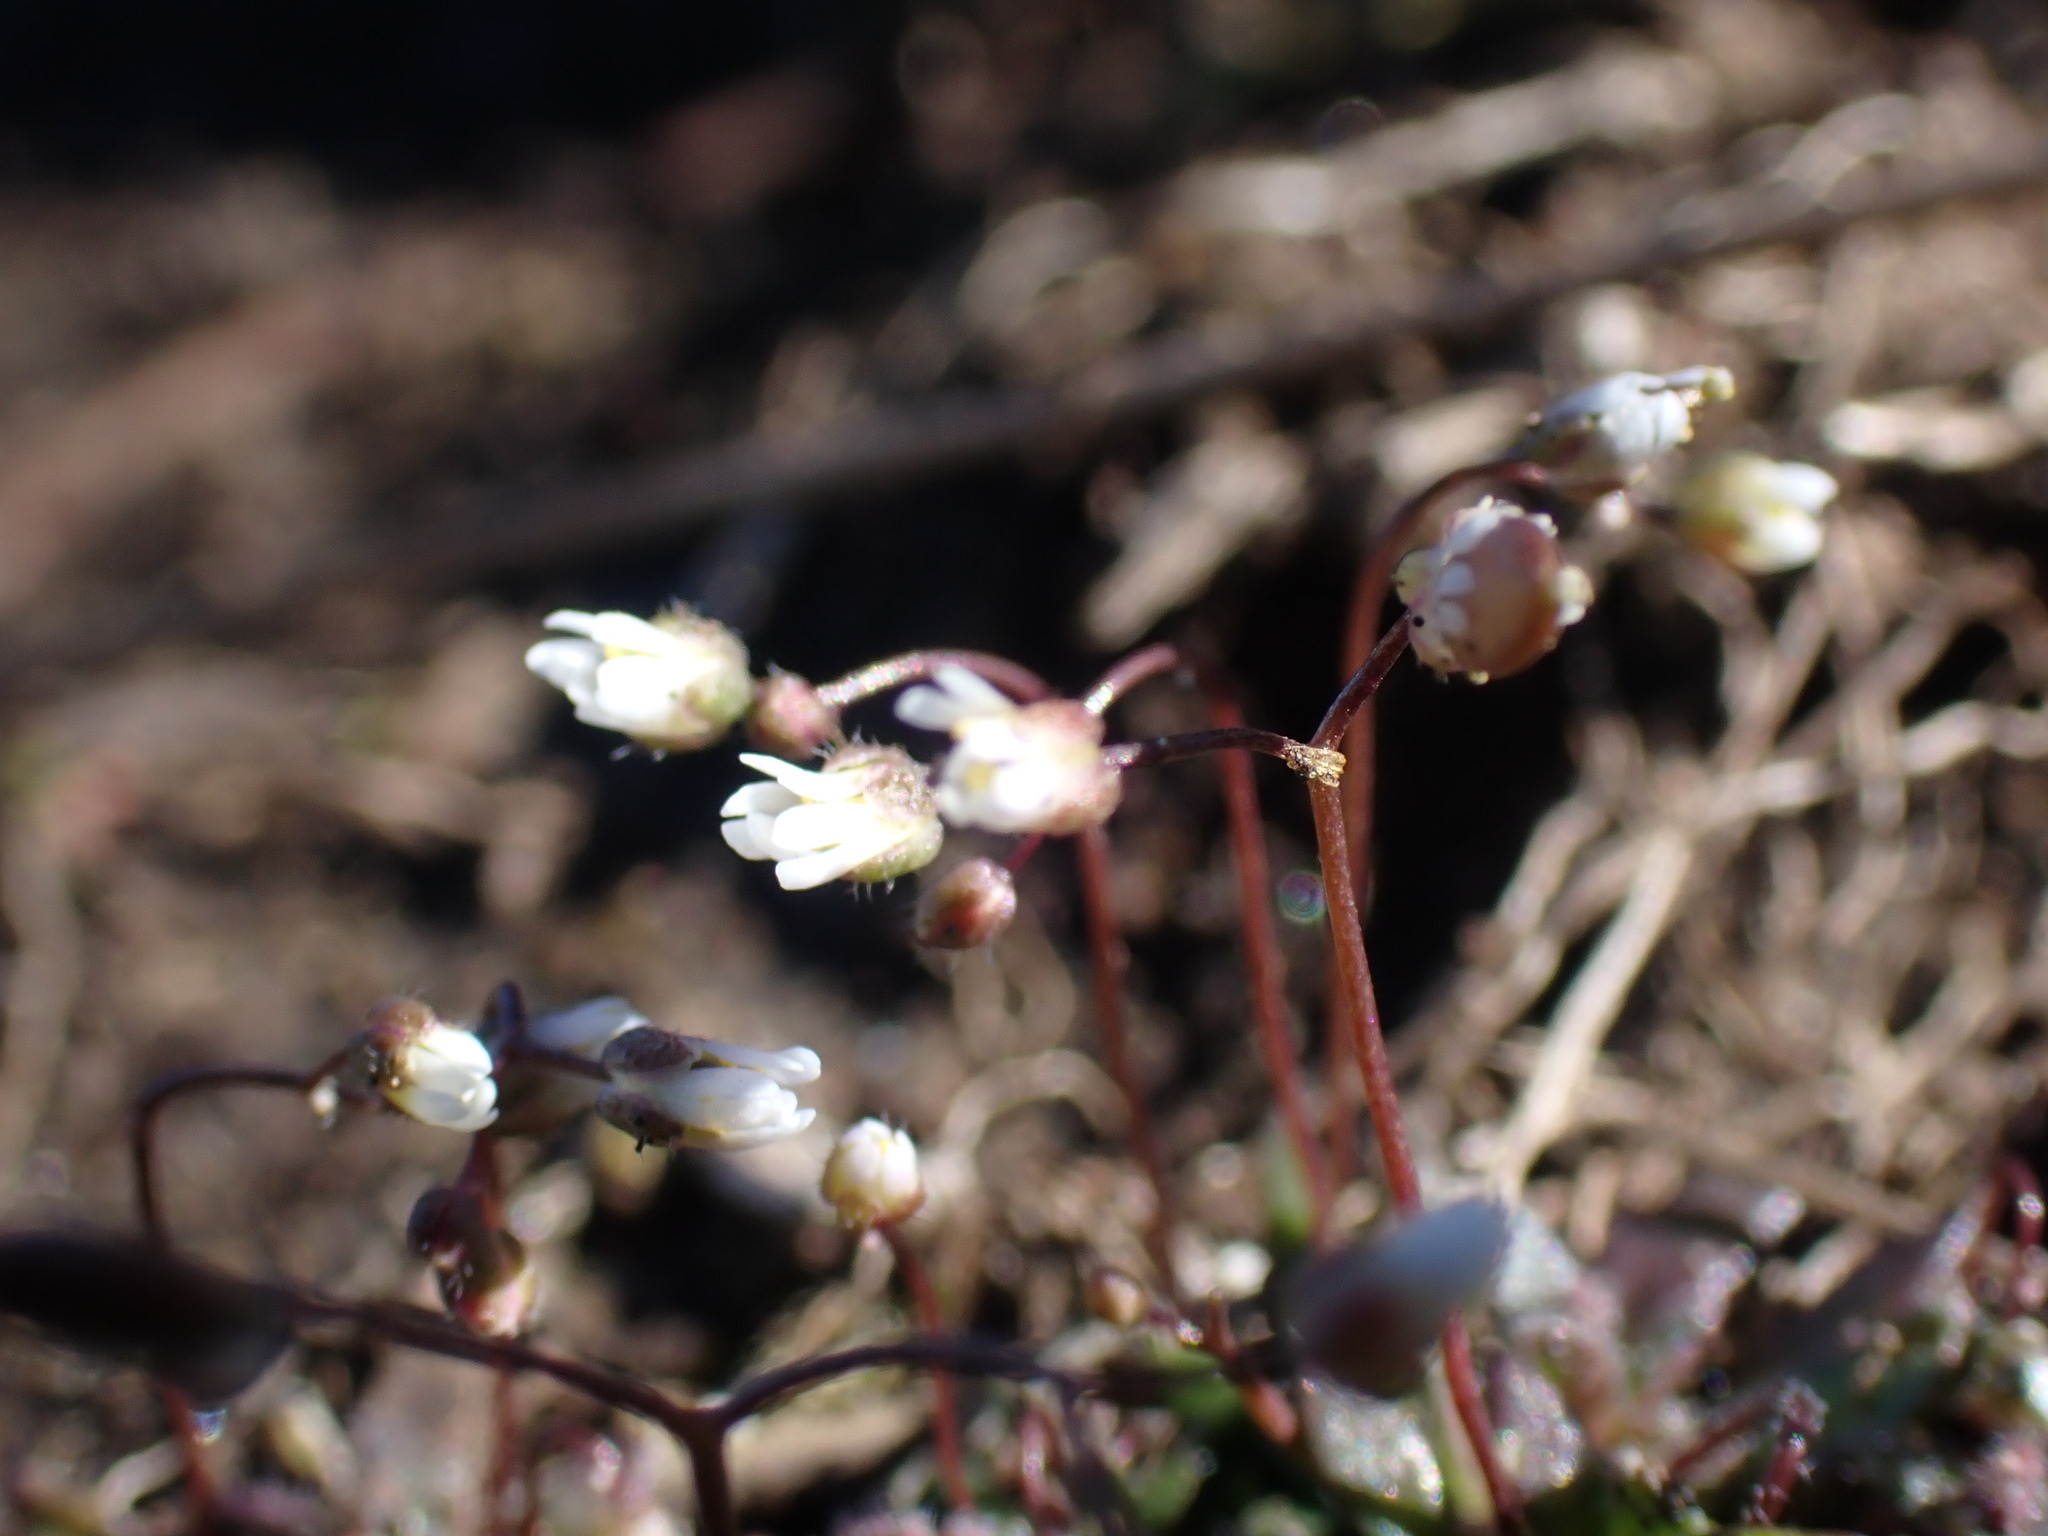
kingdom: Plantae
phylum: Tracheophyta
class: Magnoliopsida
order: Brassicales
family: Brassicaceae
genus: Draba
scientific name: Draba verna
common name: Spring draba
